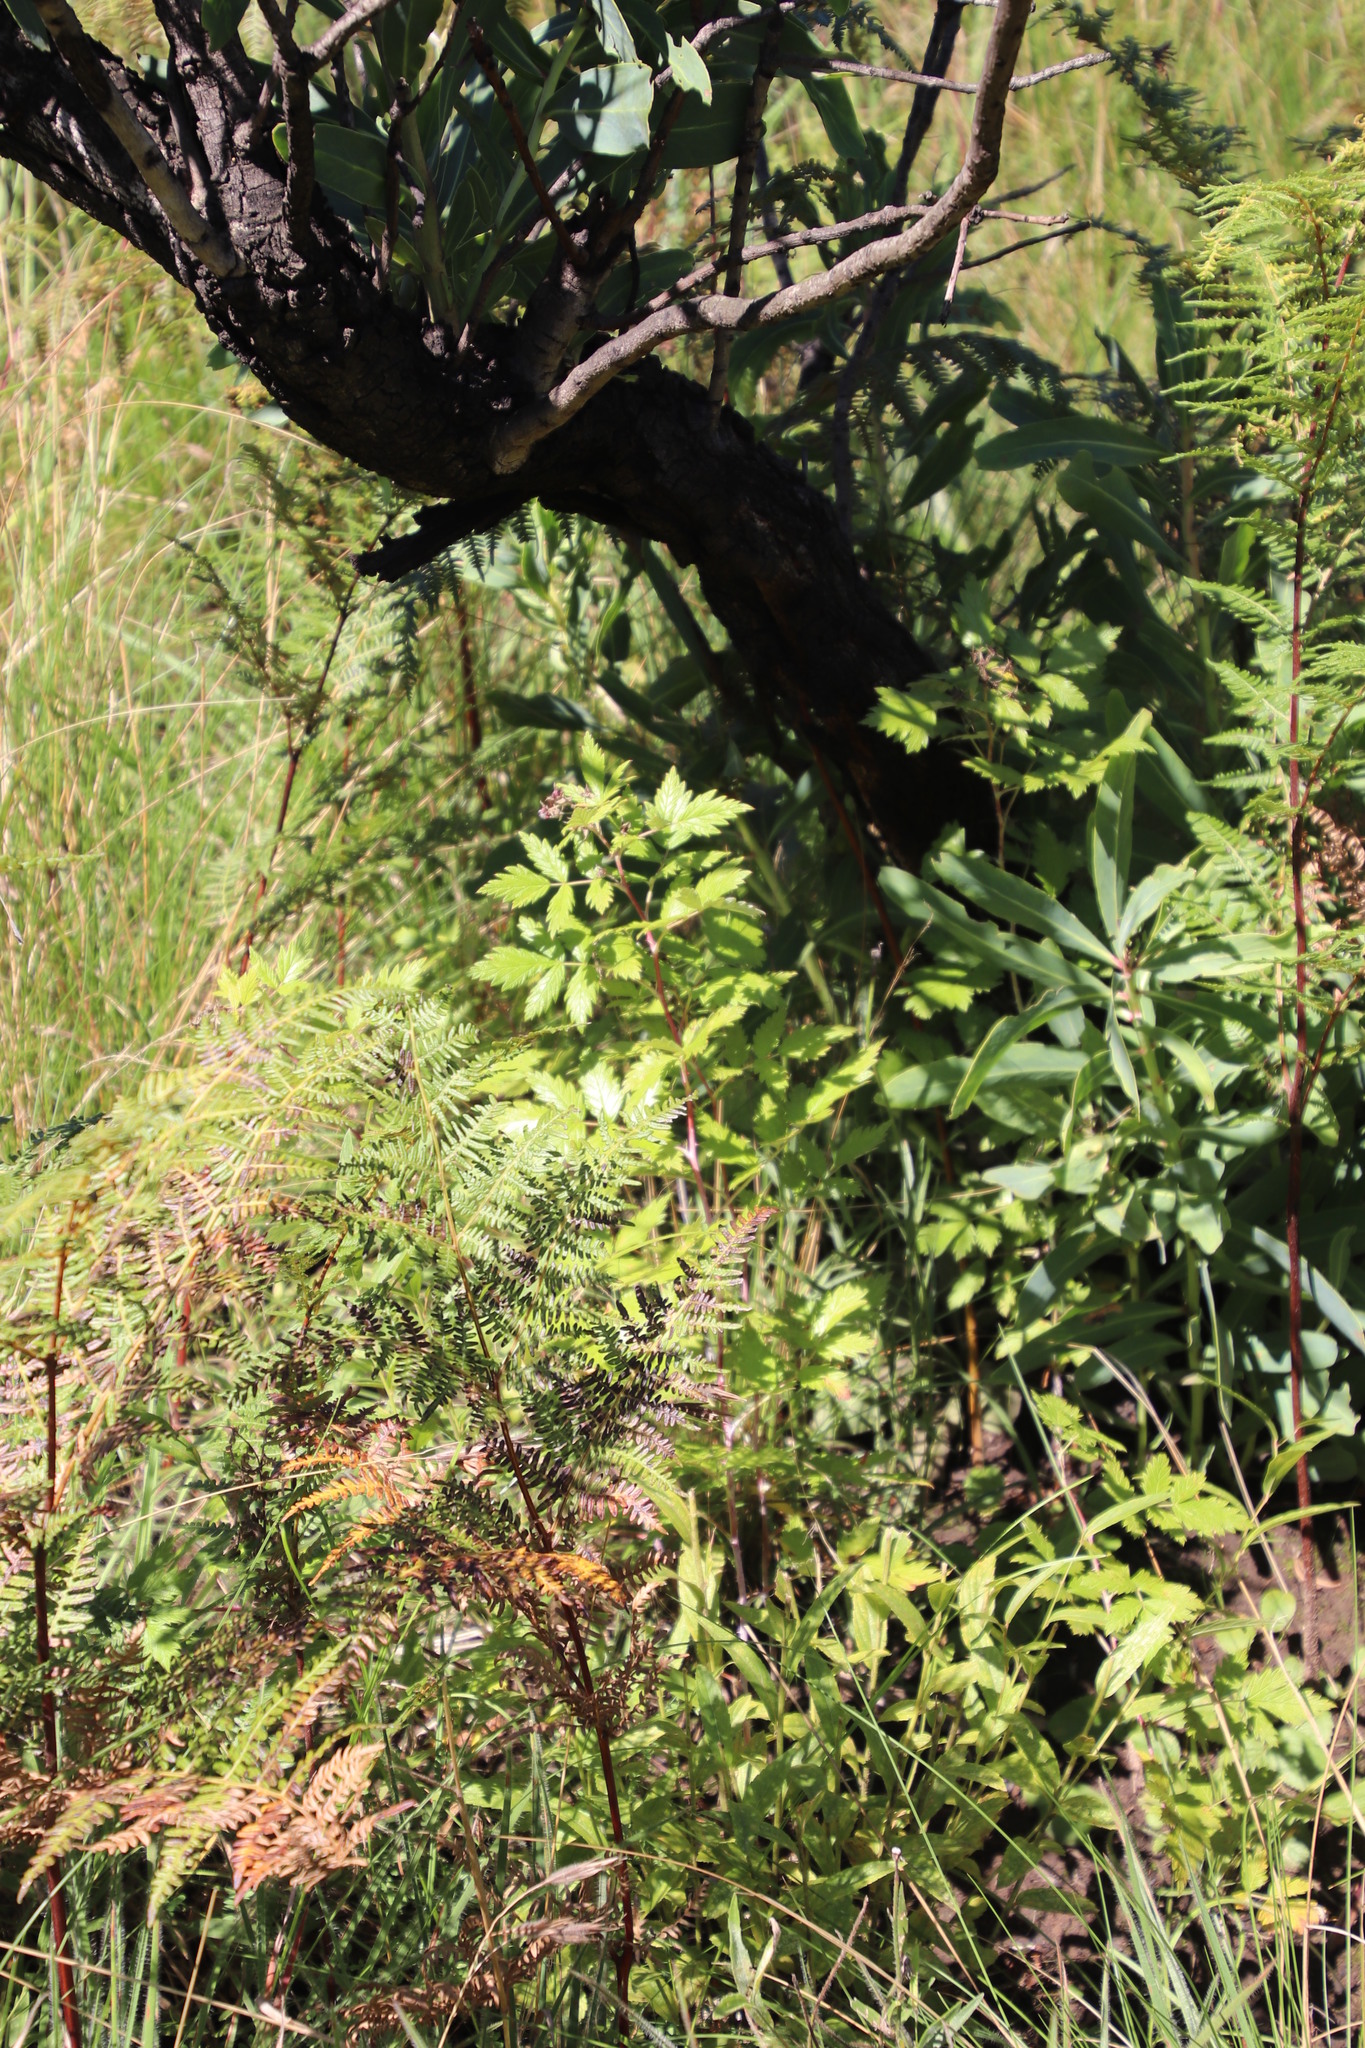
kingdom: Plantae
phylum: Tracheophyta
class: Magnoliopsida
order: Rosales
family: Rosaceae
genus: Rubus
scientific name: Rubus ludwigii
